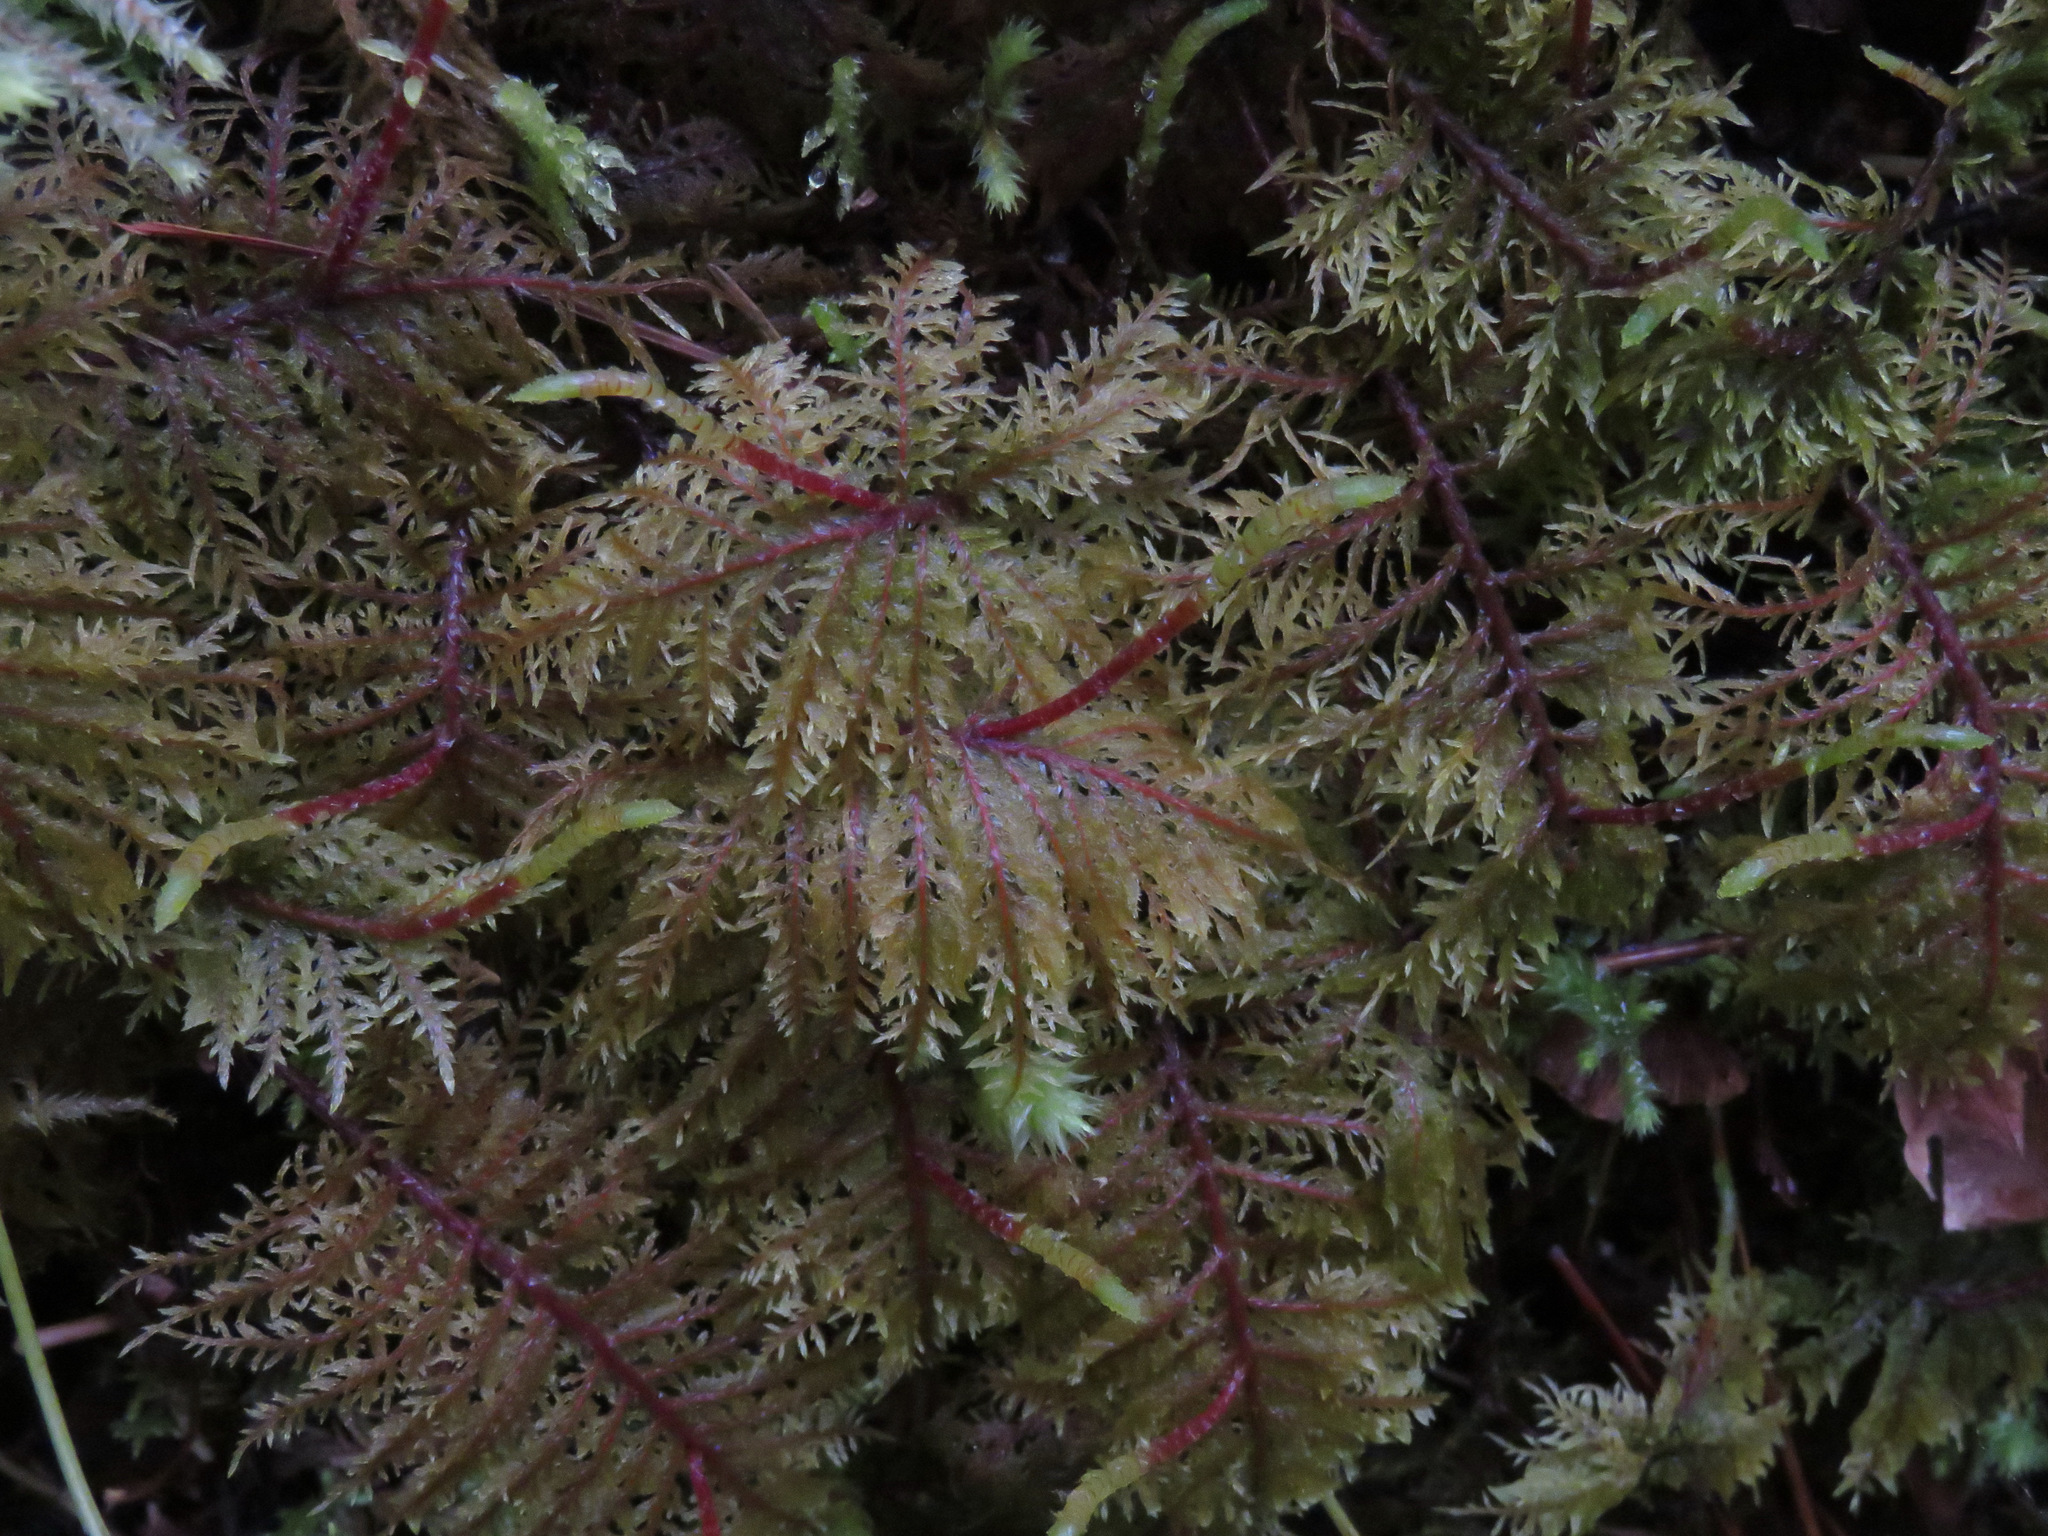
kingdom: Plantae
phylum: Bryophyta
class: Bryopsida
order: Hypnales
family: Hylocomiaceae
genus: Hylocomium
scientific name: Hylocomium splendens
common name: Stairstep moss
